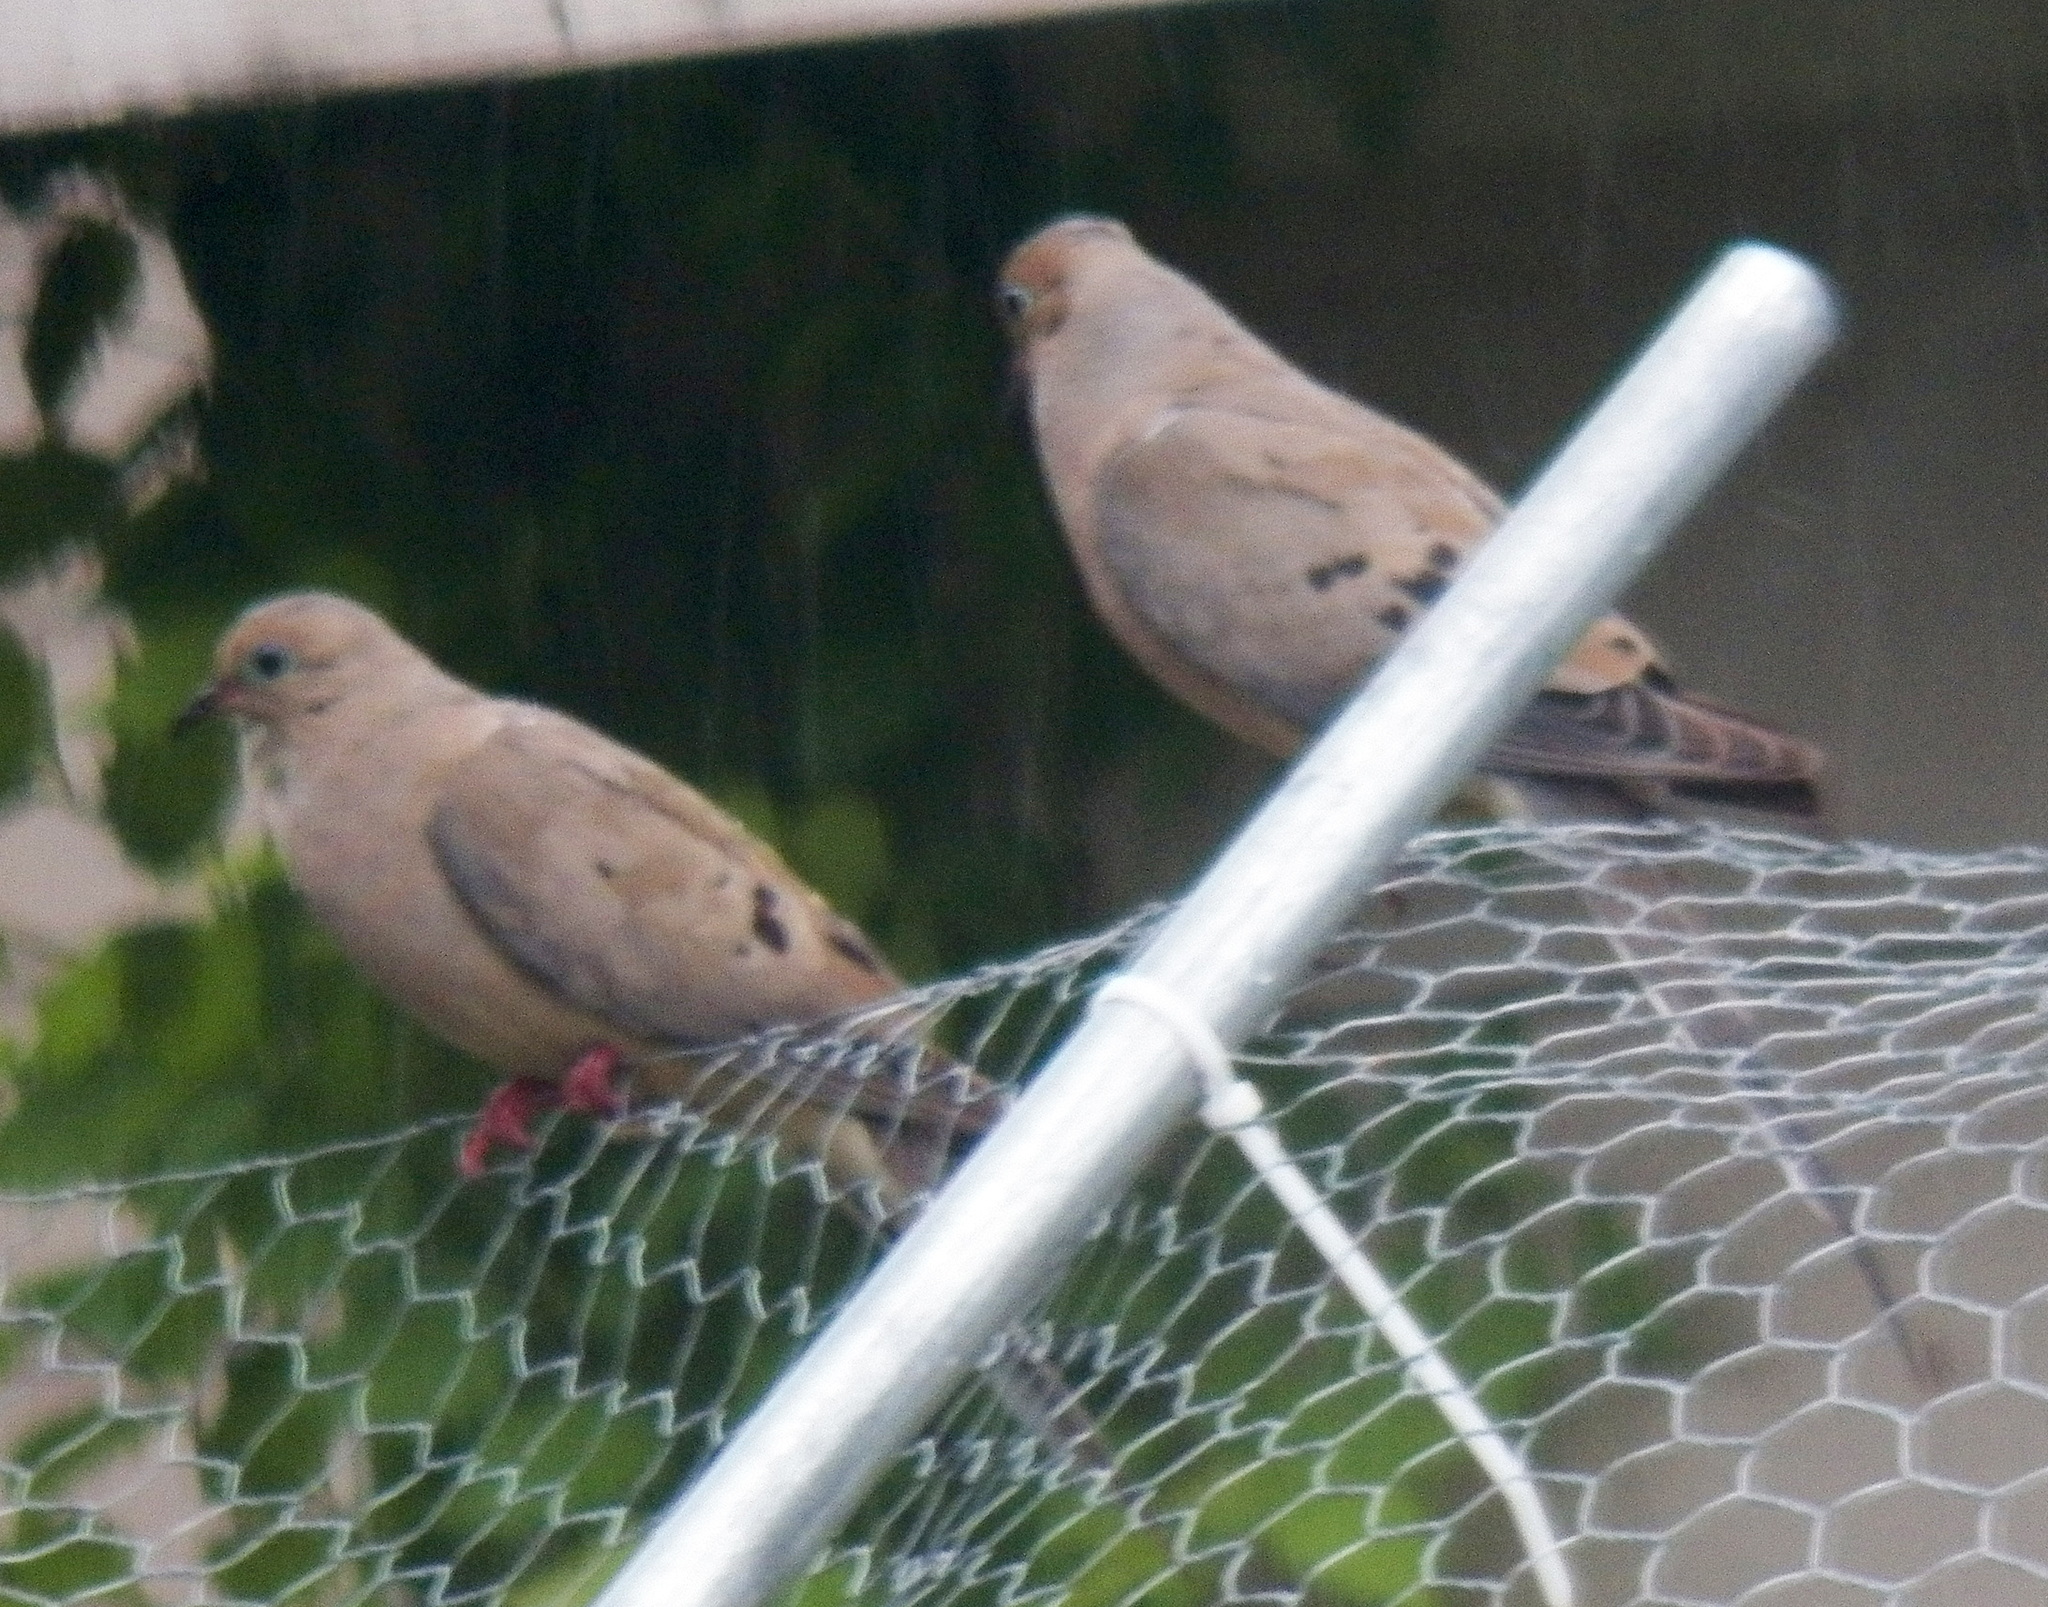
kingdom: Animalia
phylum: Chordata
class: Aves
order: Columbiformes
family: Columbidae
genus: Zenaida
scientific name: Zenaida macroura
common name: Mourning dove
